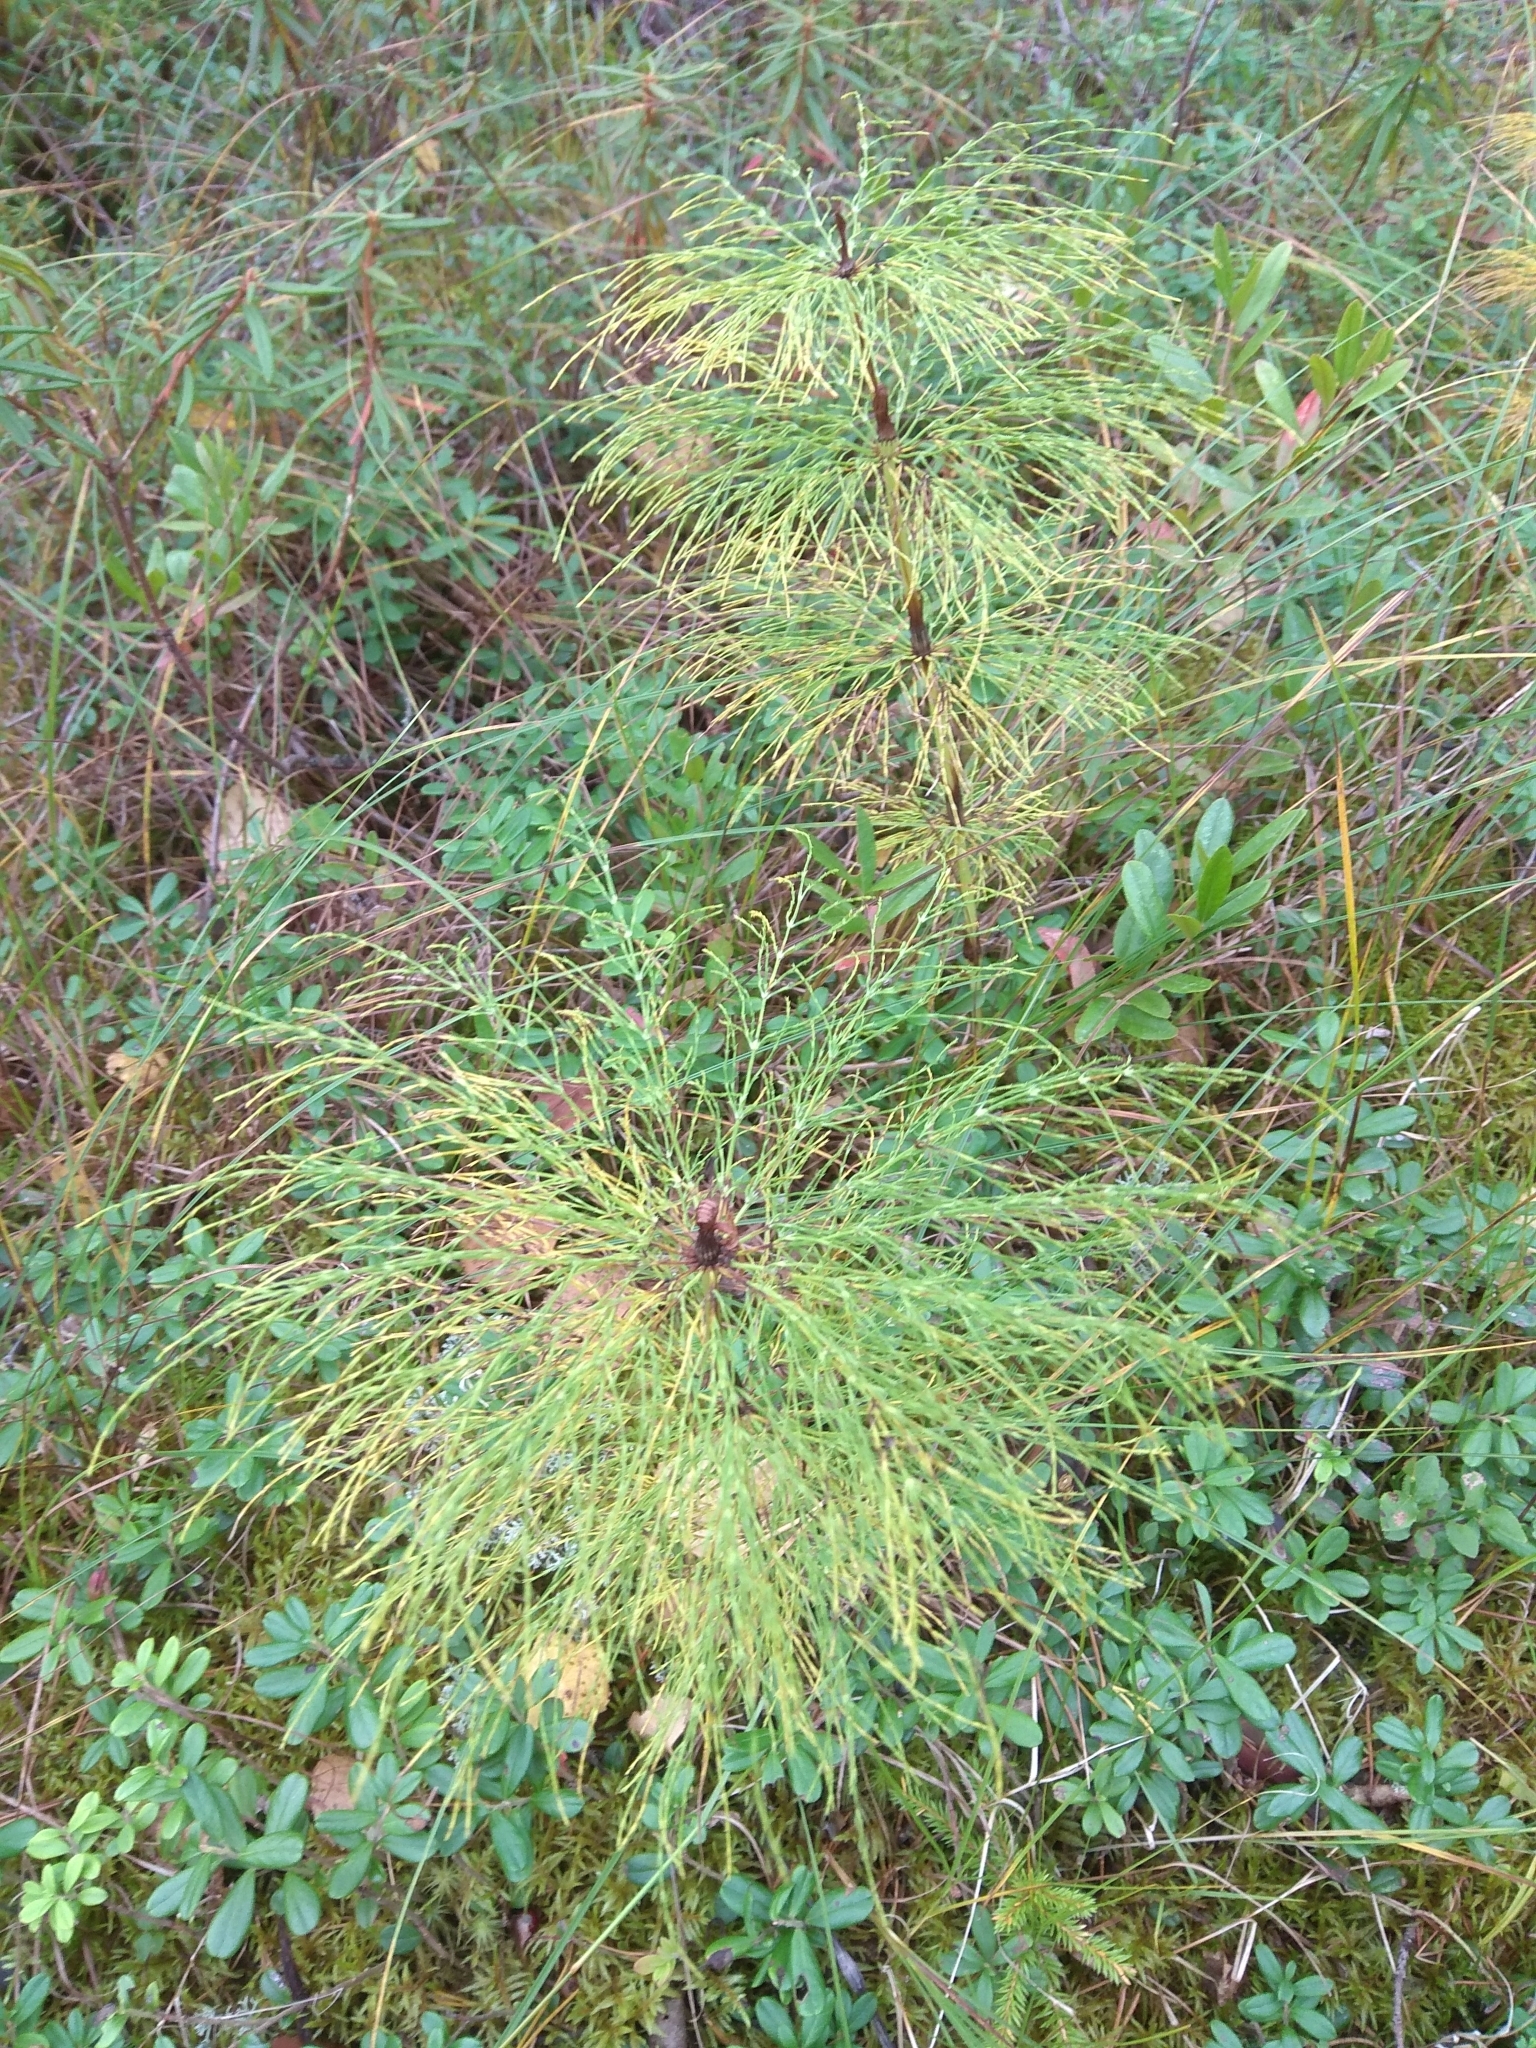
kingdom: Plantae
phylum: Tracheophyta
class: Polypodiopsida
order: Equisetales
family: Equisetaceae
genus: Equisetum
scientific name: Equisetum sylvaticum
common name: Wood horsetail
